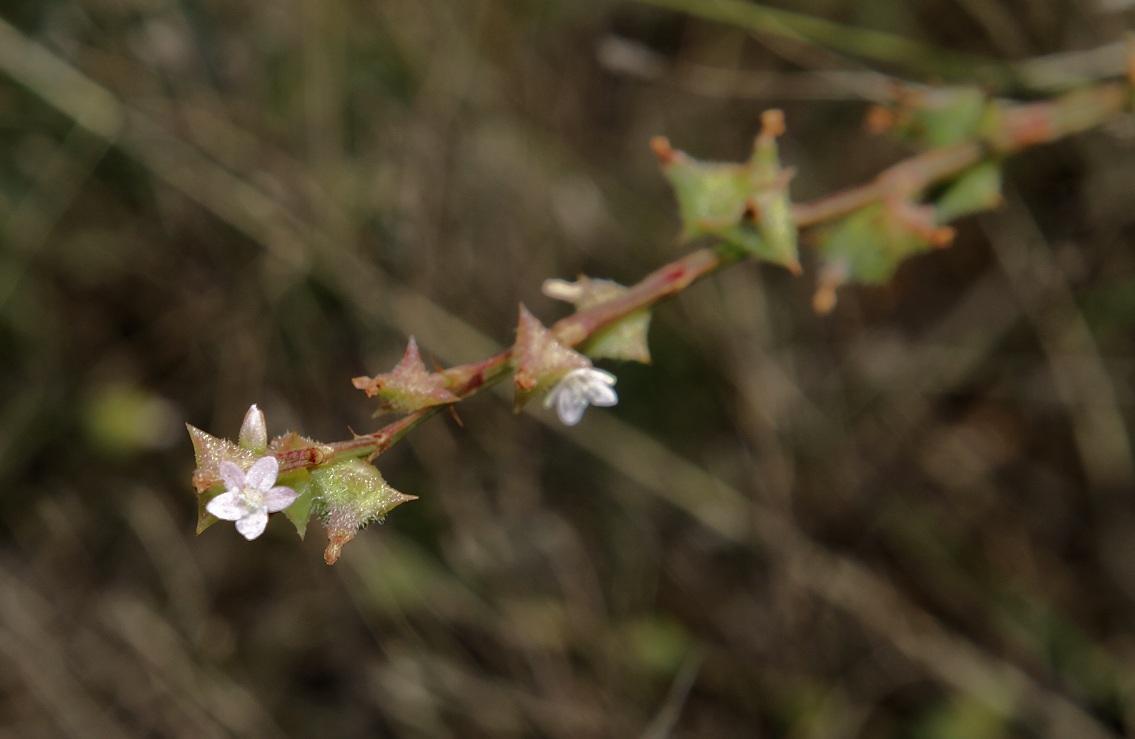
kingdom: Plantae
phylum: Tracheophyta
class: Magnoliopsida
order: Caryophyllales
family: Polygonaceae
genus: Oxygonum
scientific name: Oxygonum sinuatum
